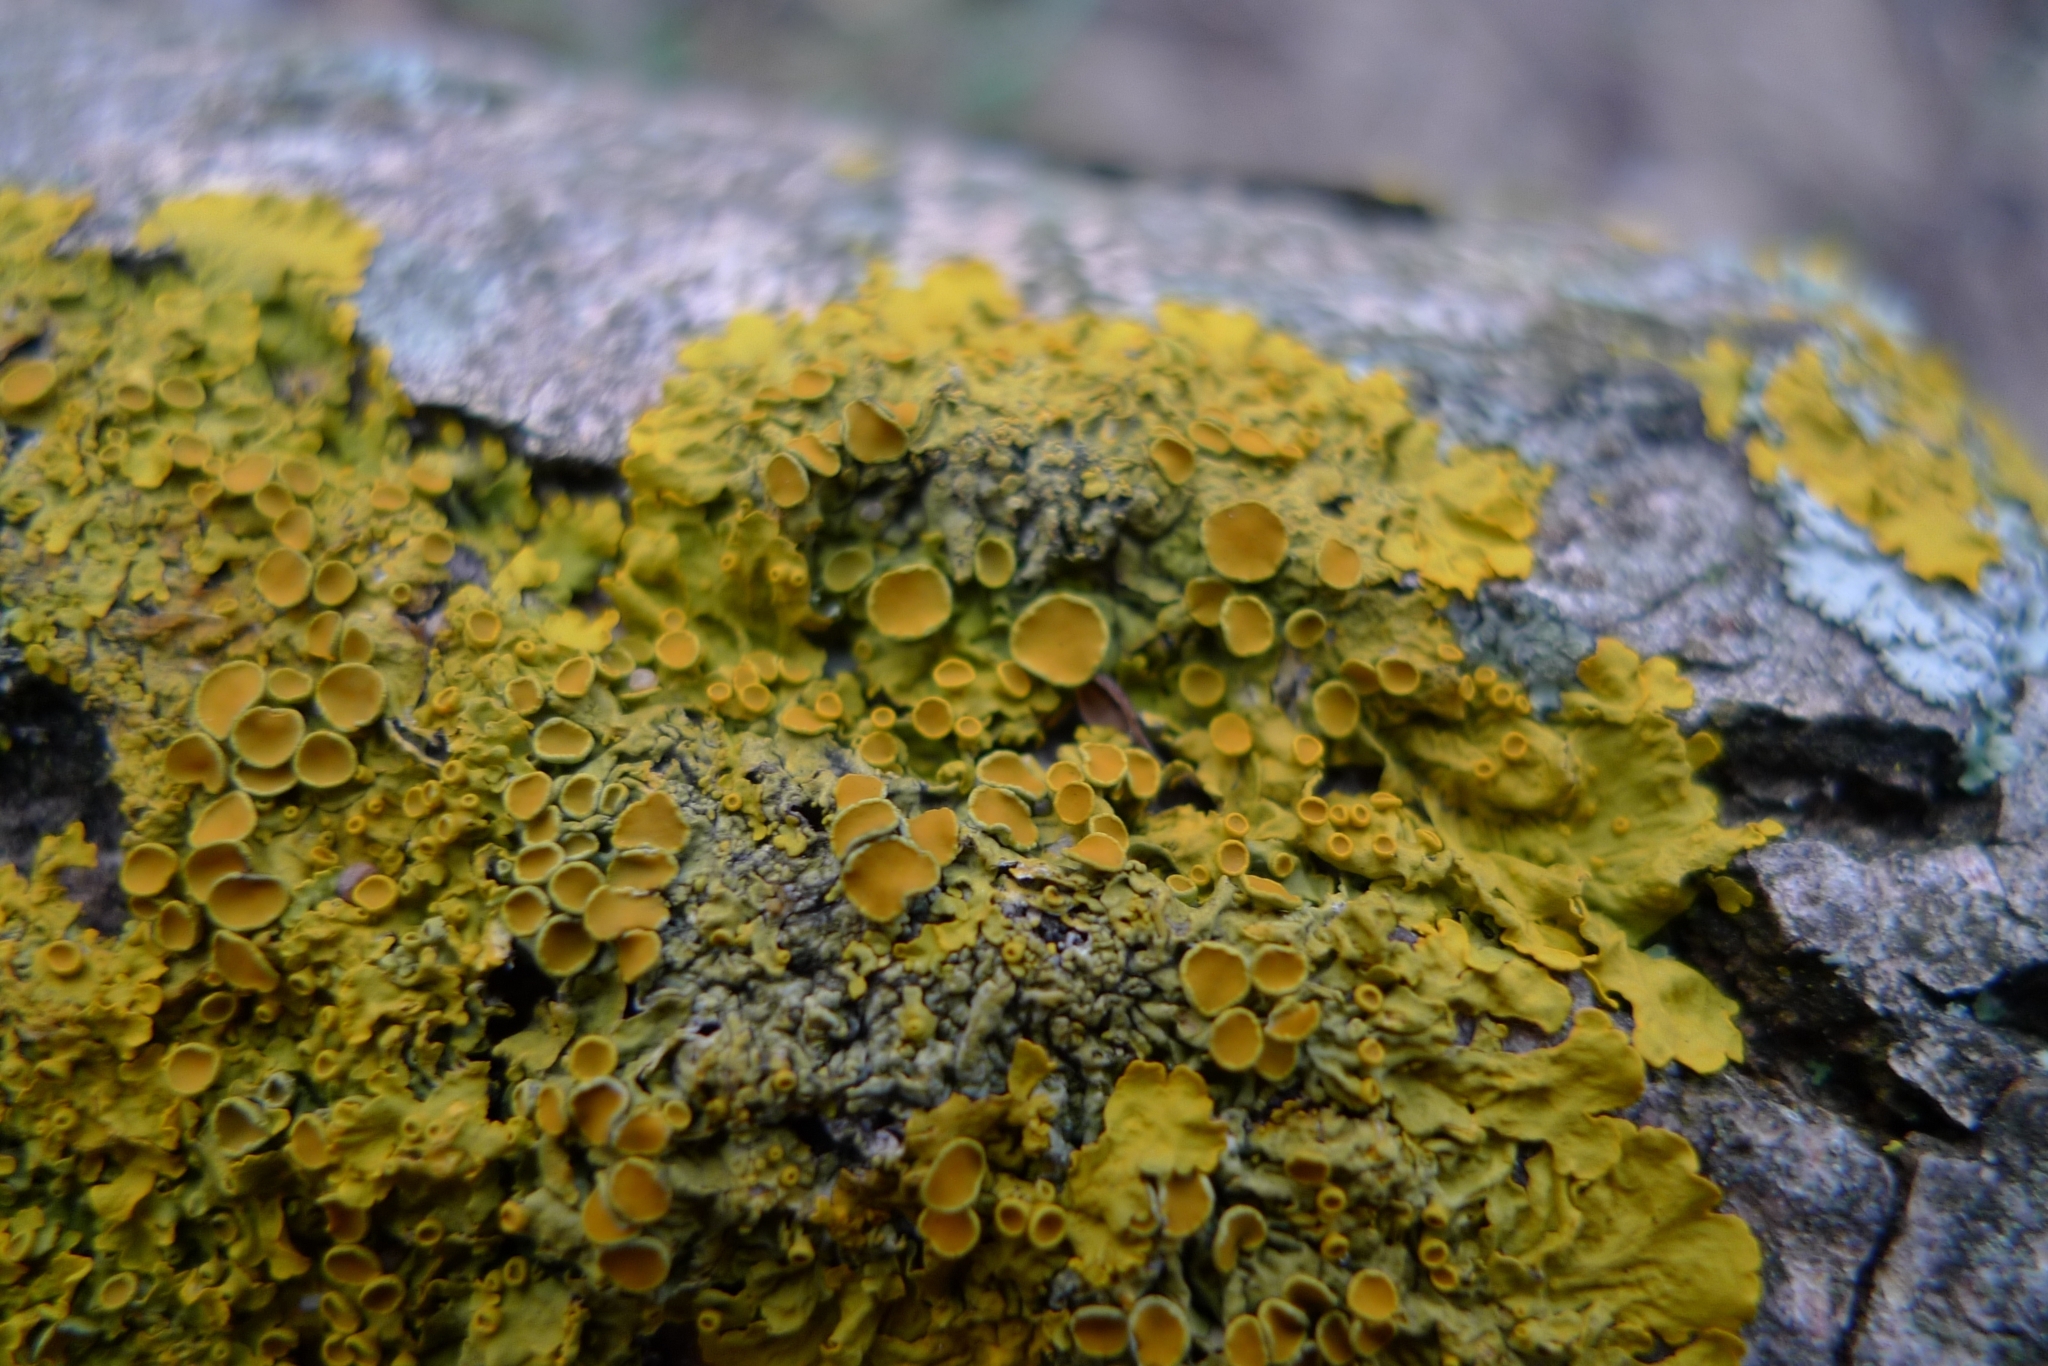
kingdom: Fungi
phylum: Ascomycota
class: Lecanoromycetes
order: Teloschistales
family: Teloschistaceae
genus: Xanthoria
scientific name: Xanthoria parietina
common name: Common orange lichen
